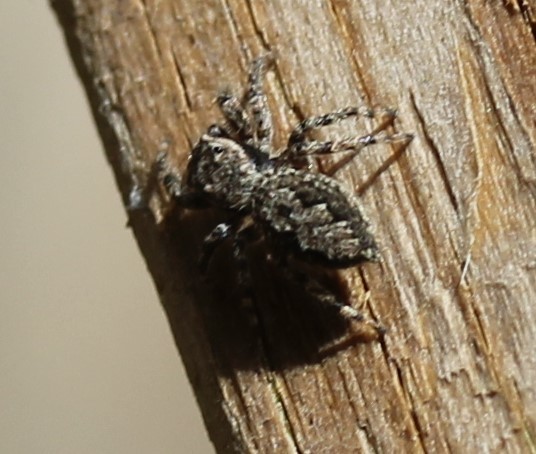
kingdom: Animalia
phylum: Arthropoda
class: Arachnida
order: Araneae
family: Salticidae
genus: Platycryptus
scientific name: Platycryptus undatus
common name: Tan jumping spider
